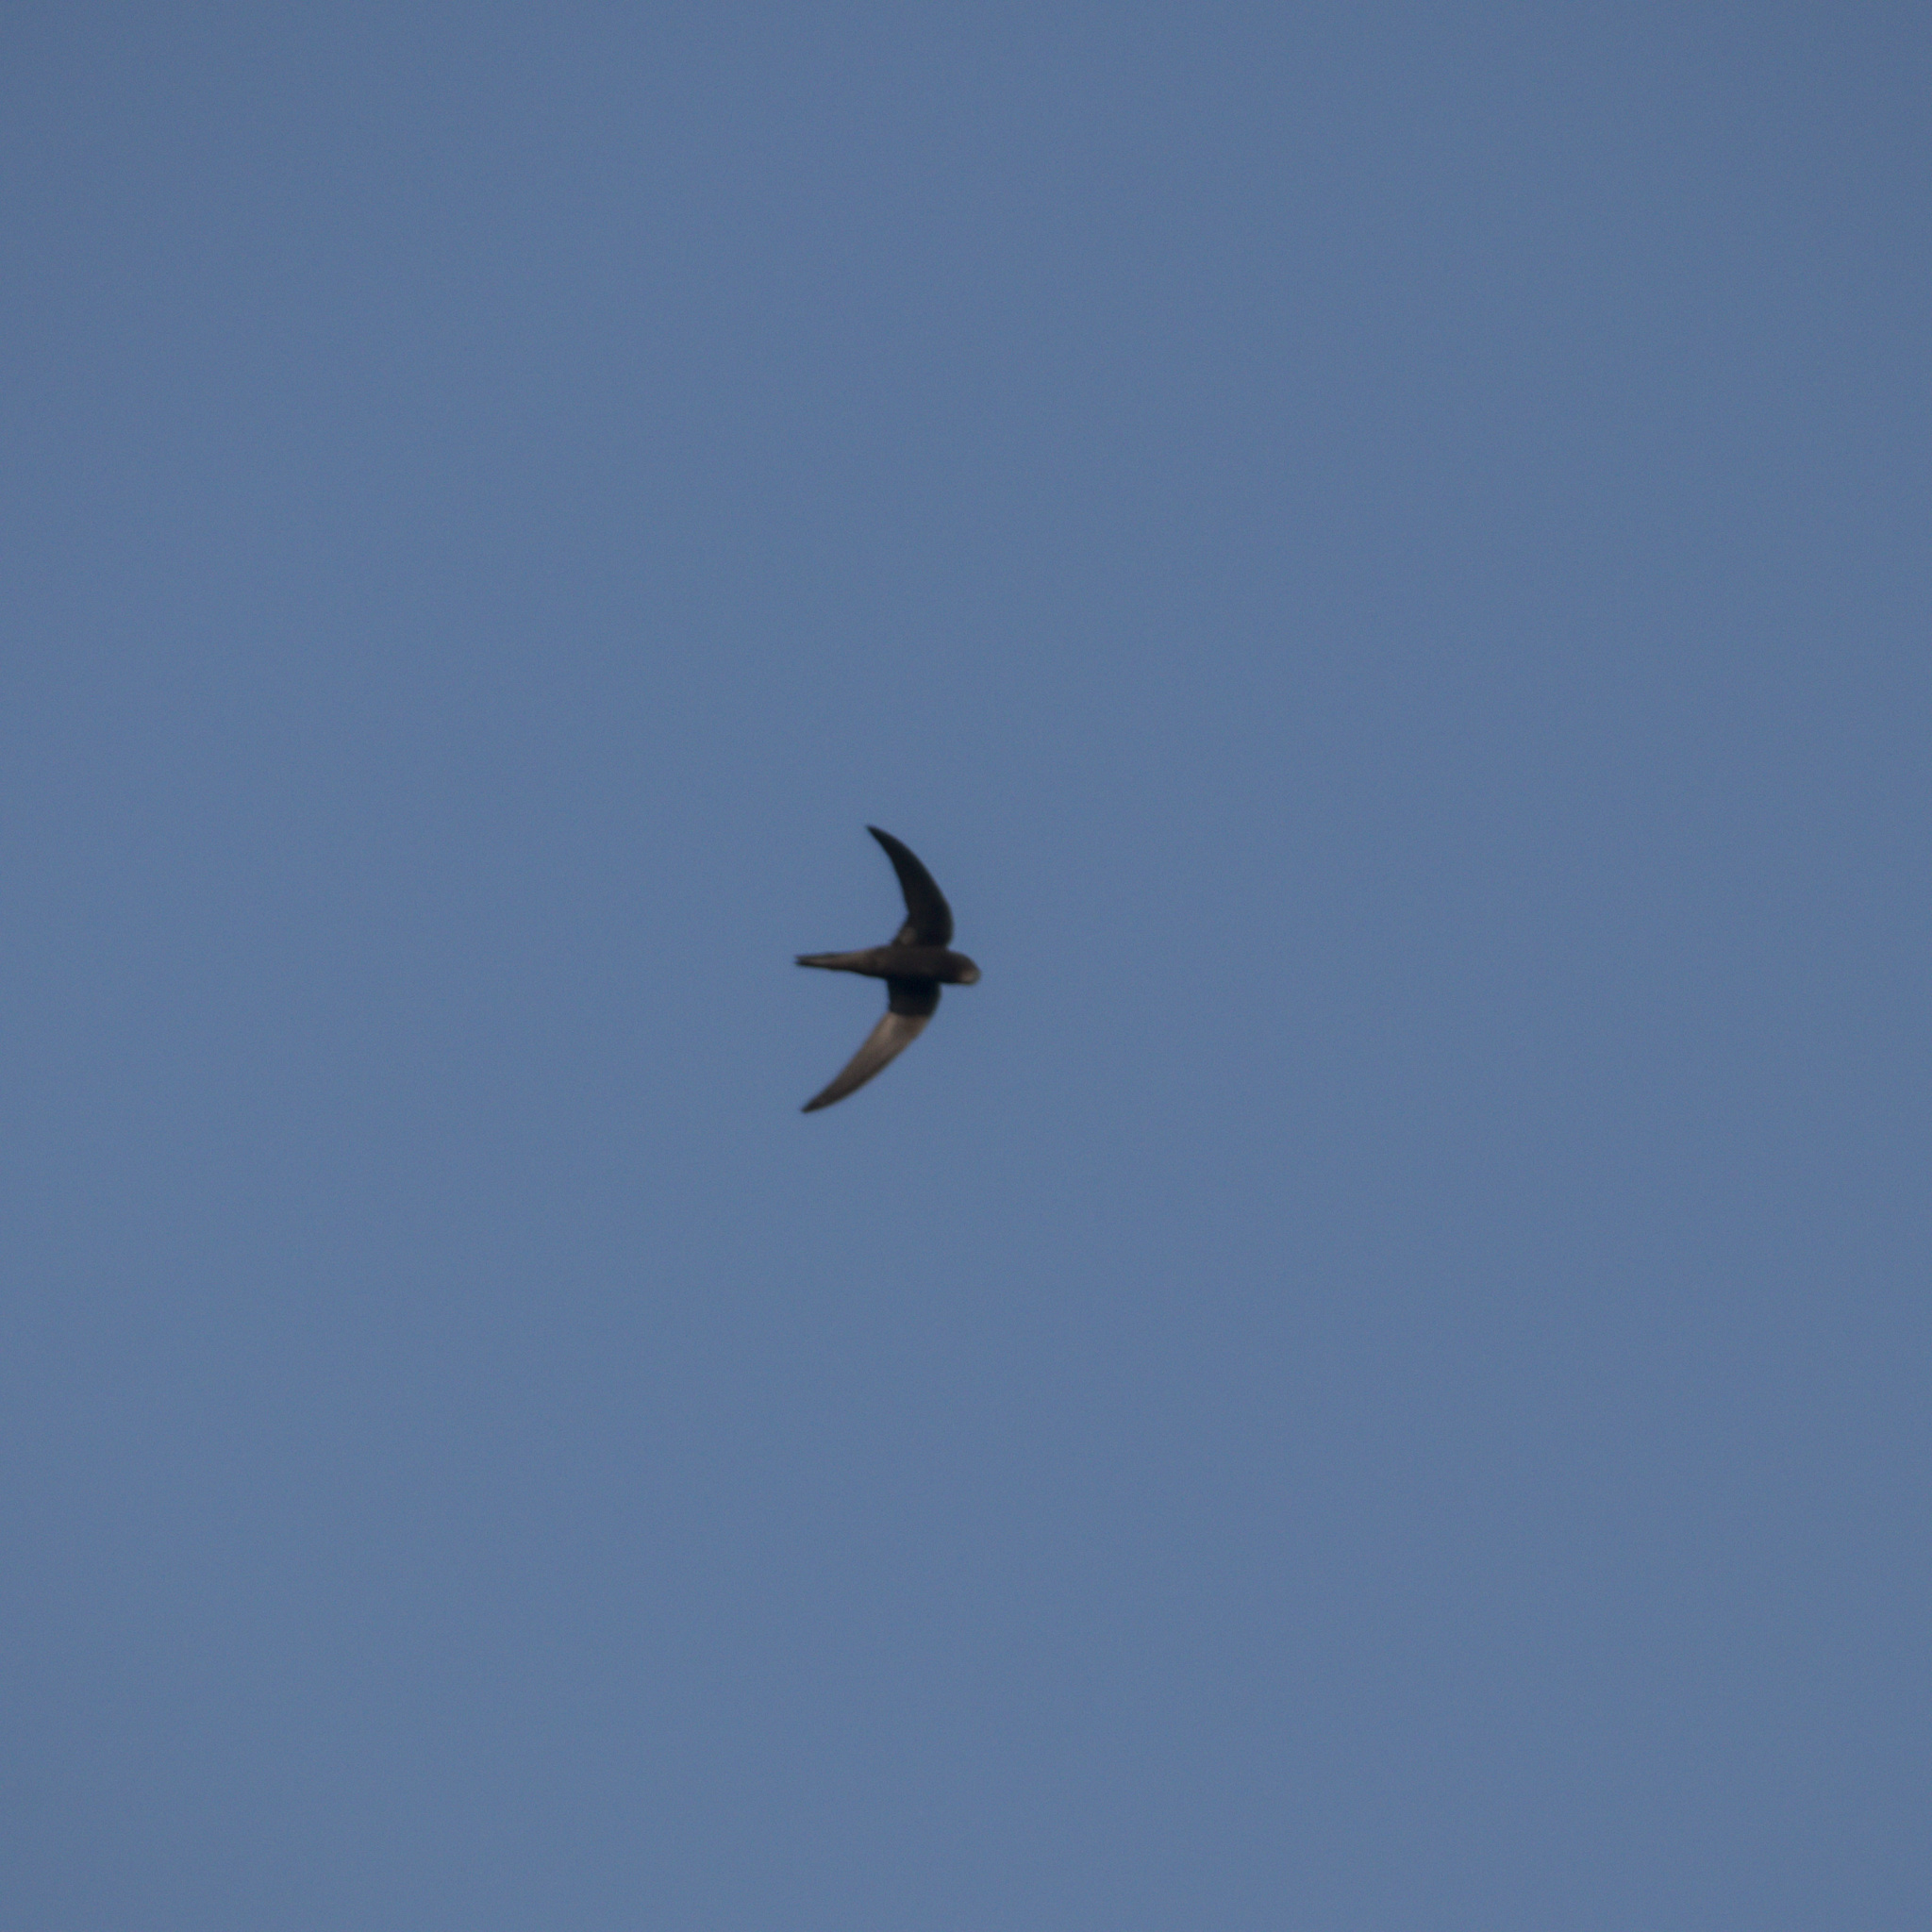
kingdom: Animalia
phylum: Chordata
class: Aves
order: Apodiformes
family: Apodidae
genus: Apus
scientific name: Apus apus
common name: Common swift
